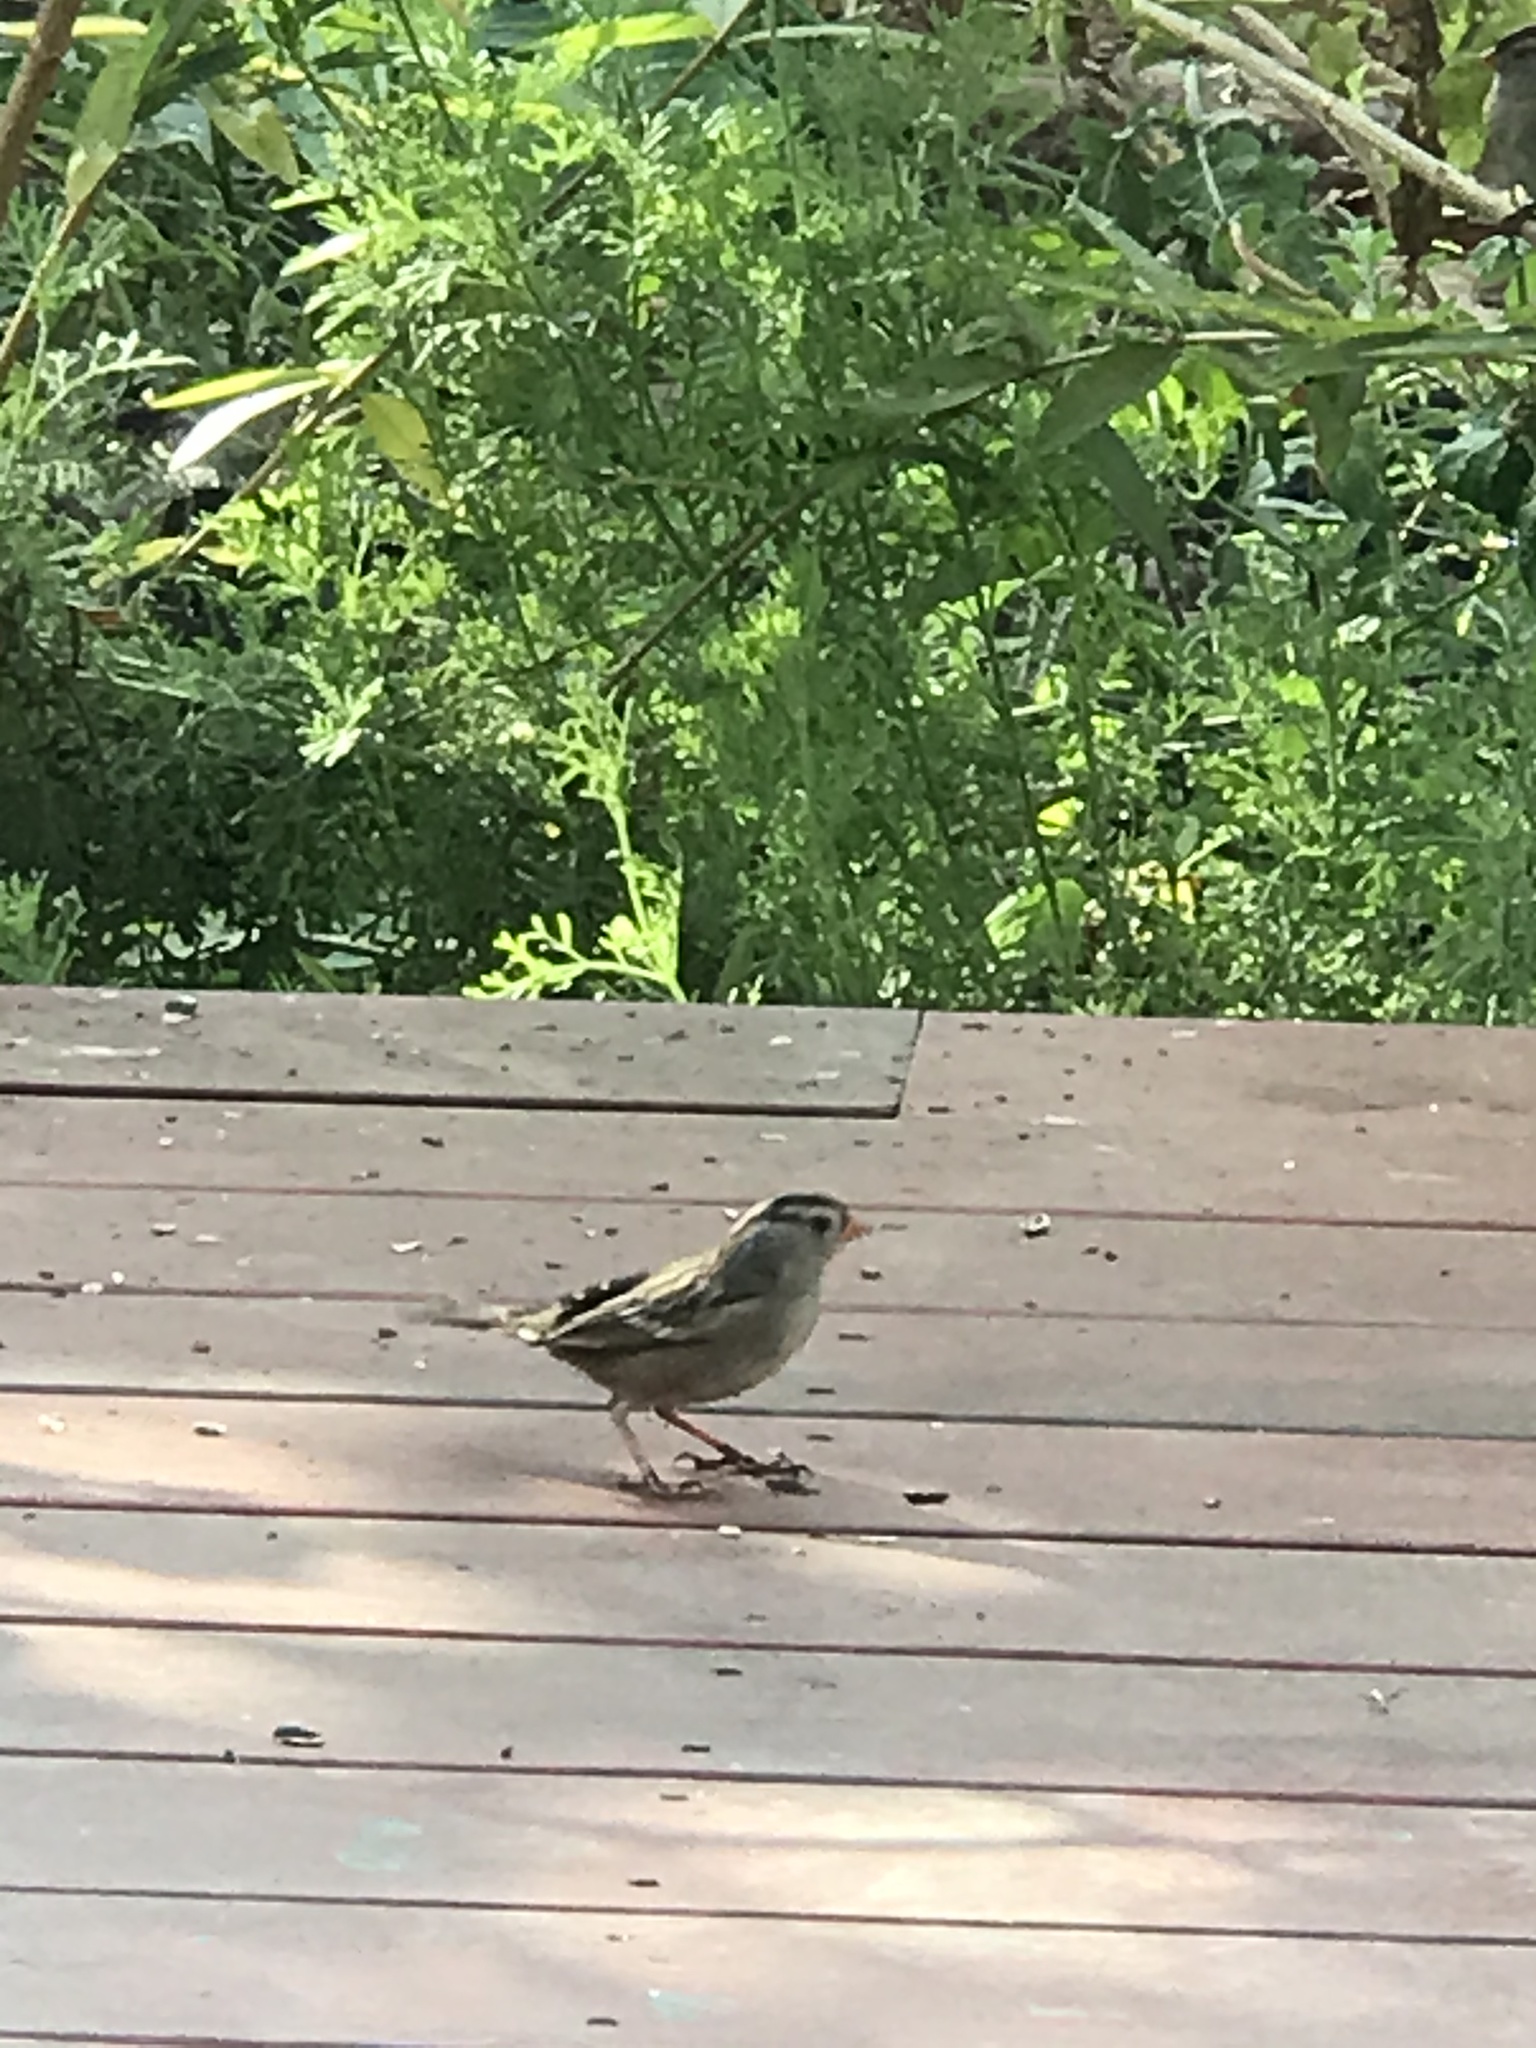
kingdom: Animalia
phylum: Chordata
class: Aves
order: Passeriformes
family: Passerellidae
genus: Zonotrichia
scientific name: Zonotrichia leucophrys
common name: White-crowned sparrow
